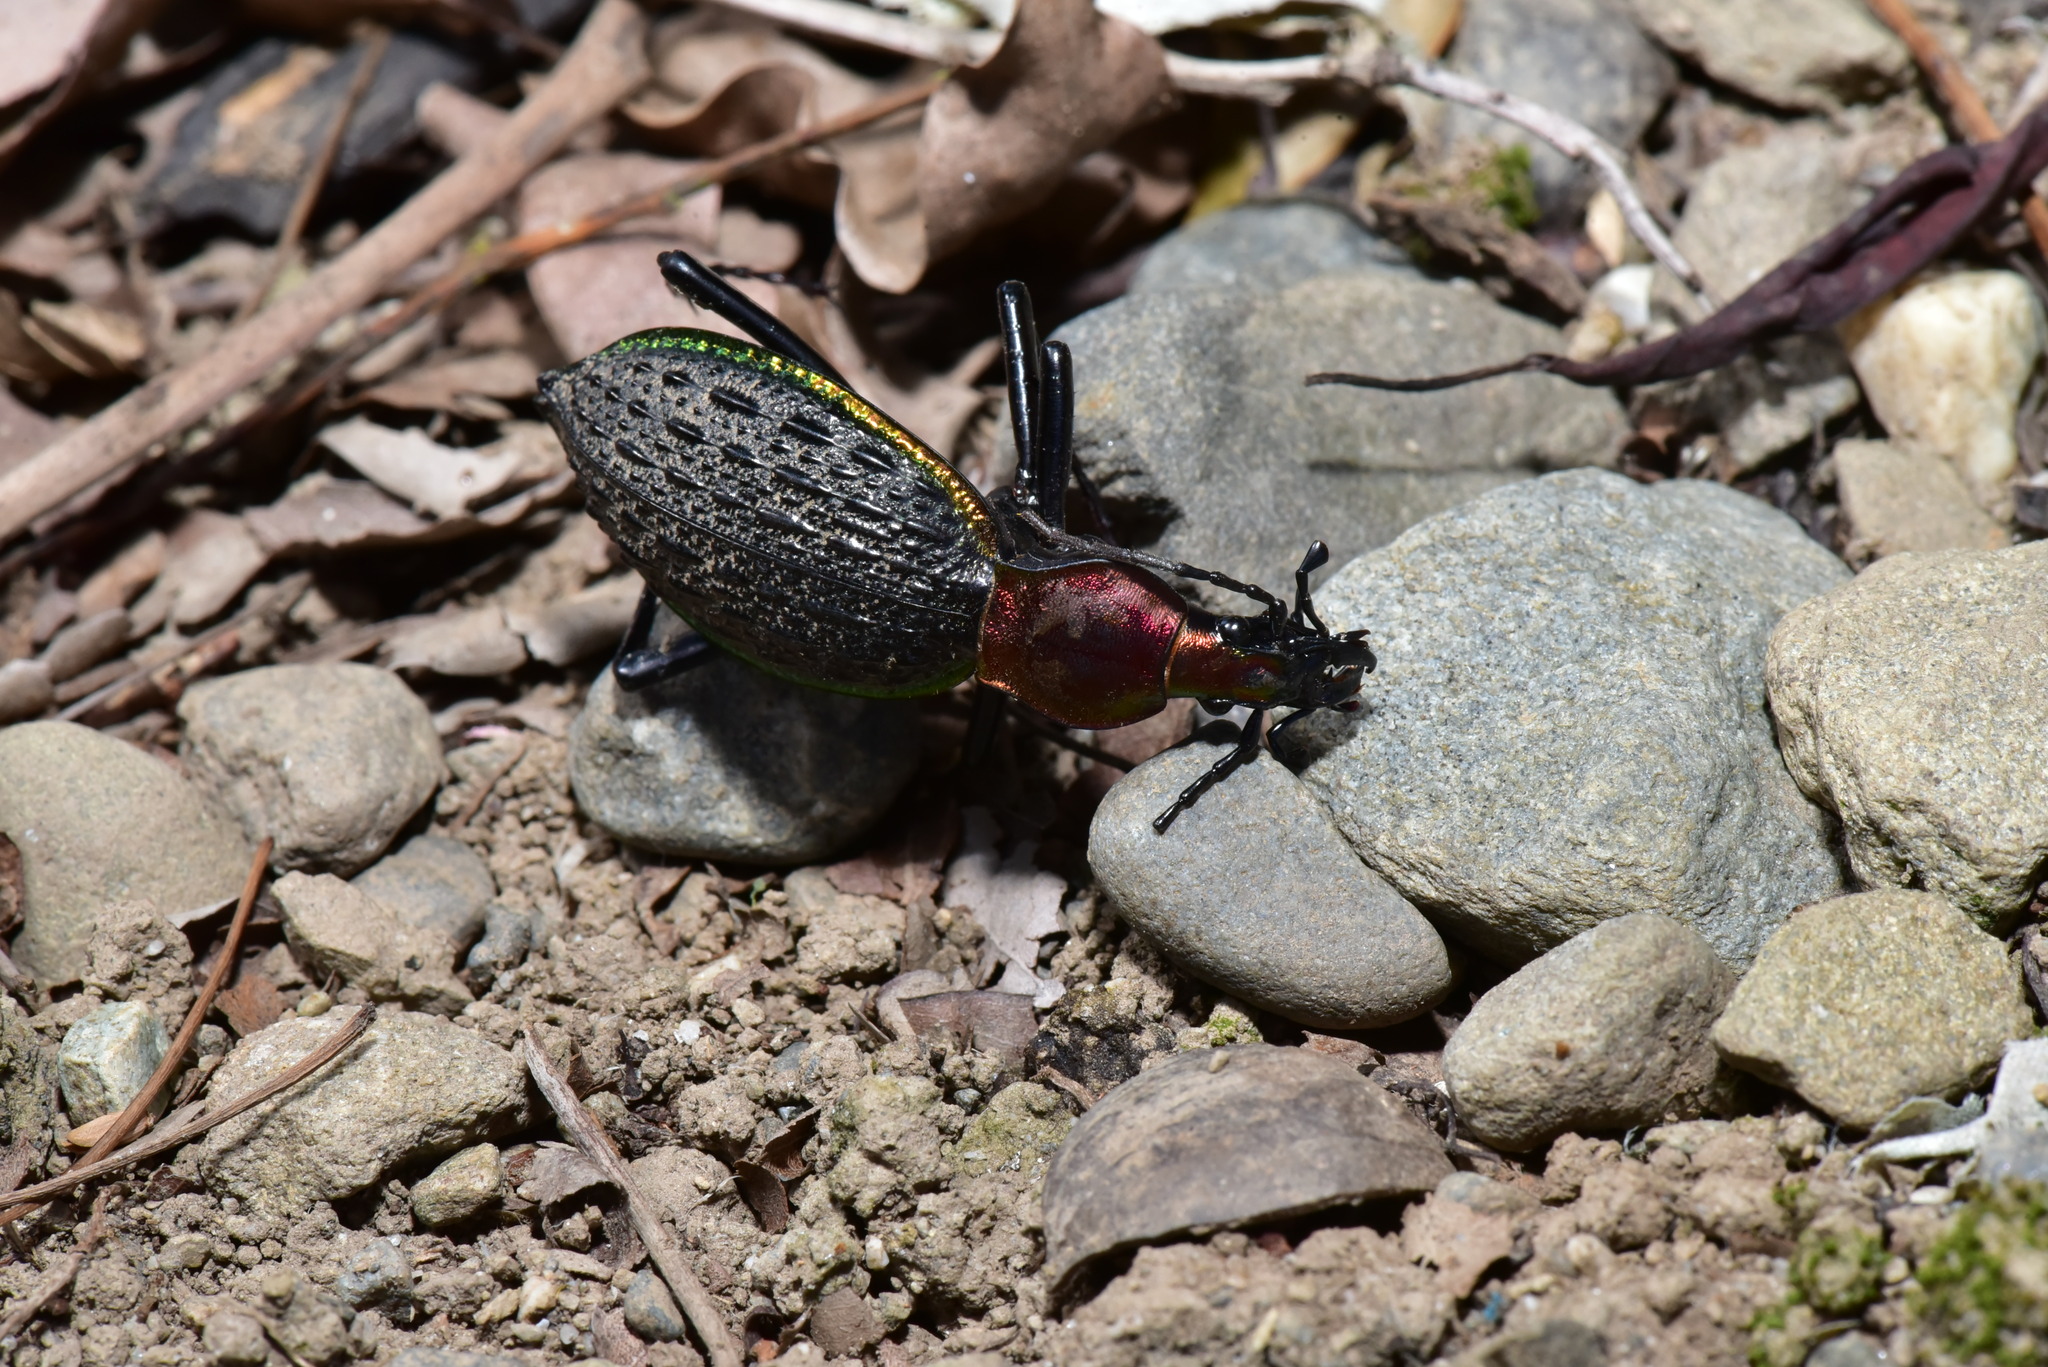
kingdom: Animalia
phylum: Arthropoda
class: Insecta
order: Coleoptera
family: Carabidae
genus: Carabus
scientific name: Carabus nankotaizanus
